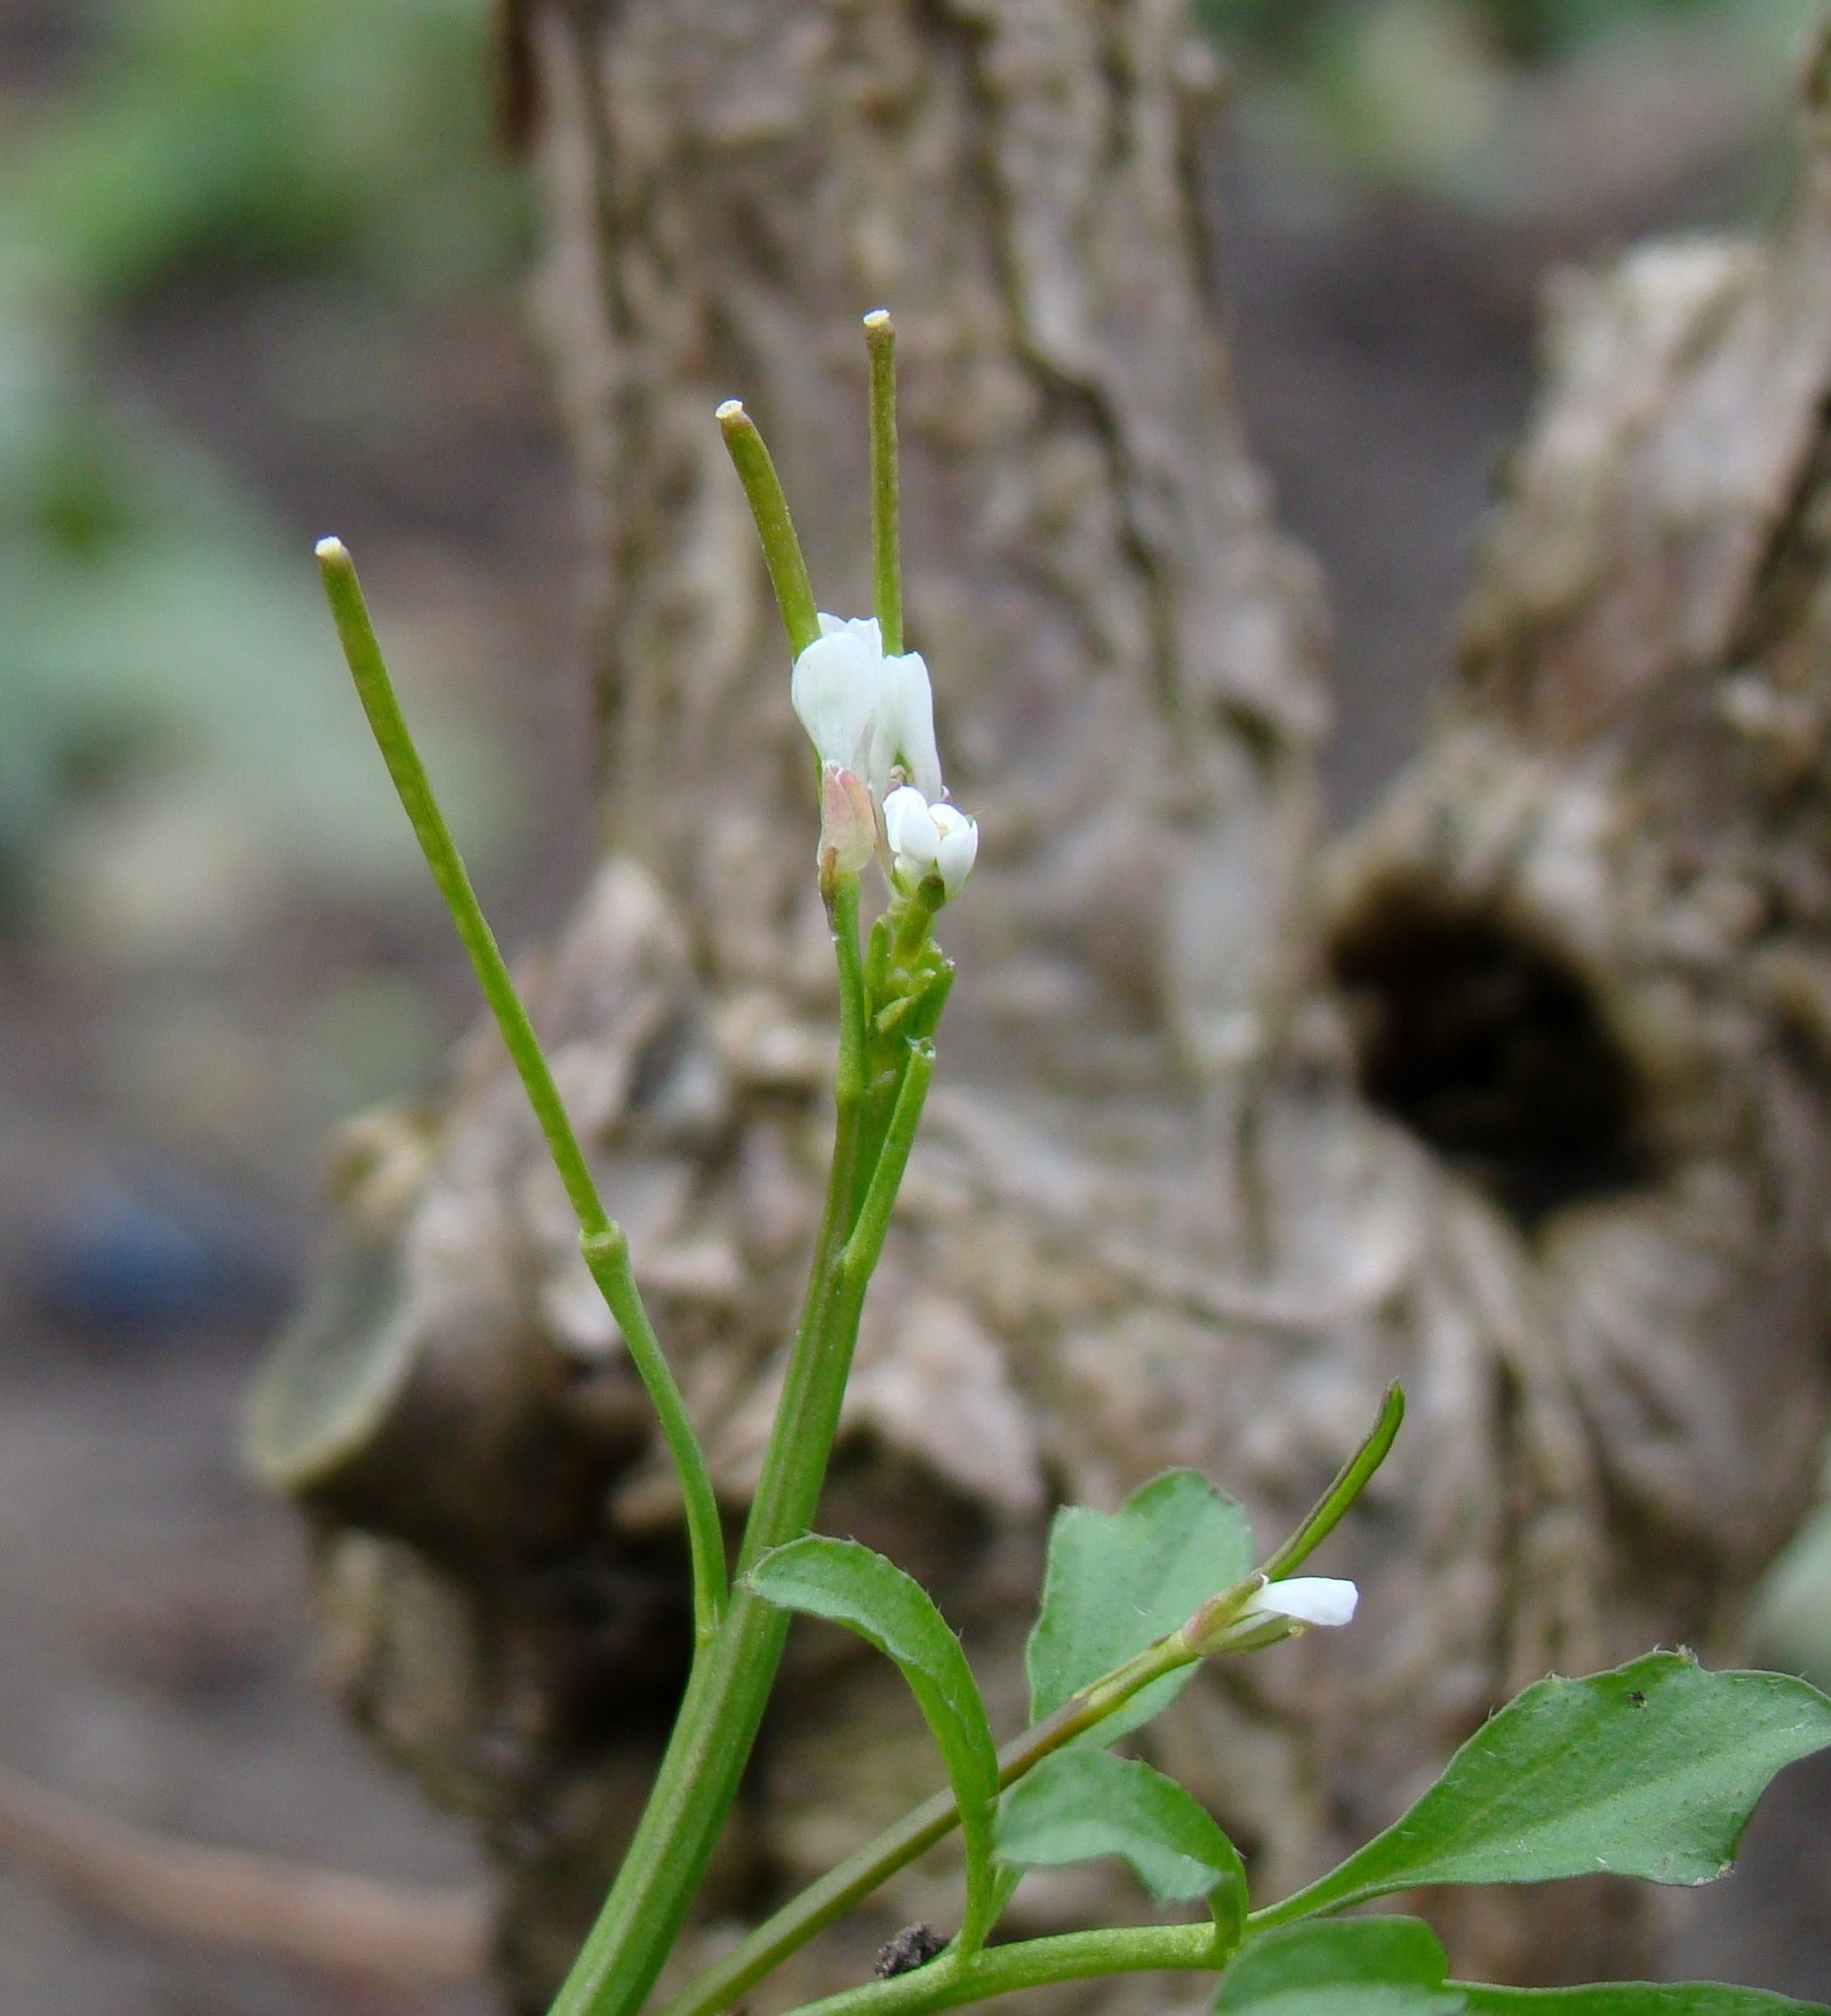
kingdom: Plantae
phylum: Tracheophyta
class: Magnoliopsida
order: Brassicales
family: Brassicaceae
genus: Cardamine
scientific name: Cardamine hirsuta
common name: Hairy bittercress
